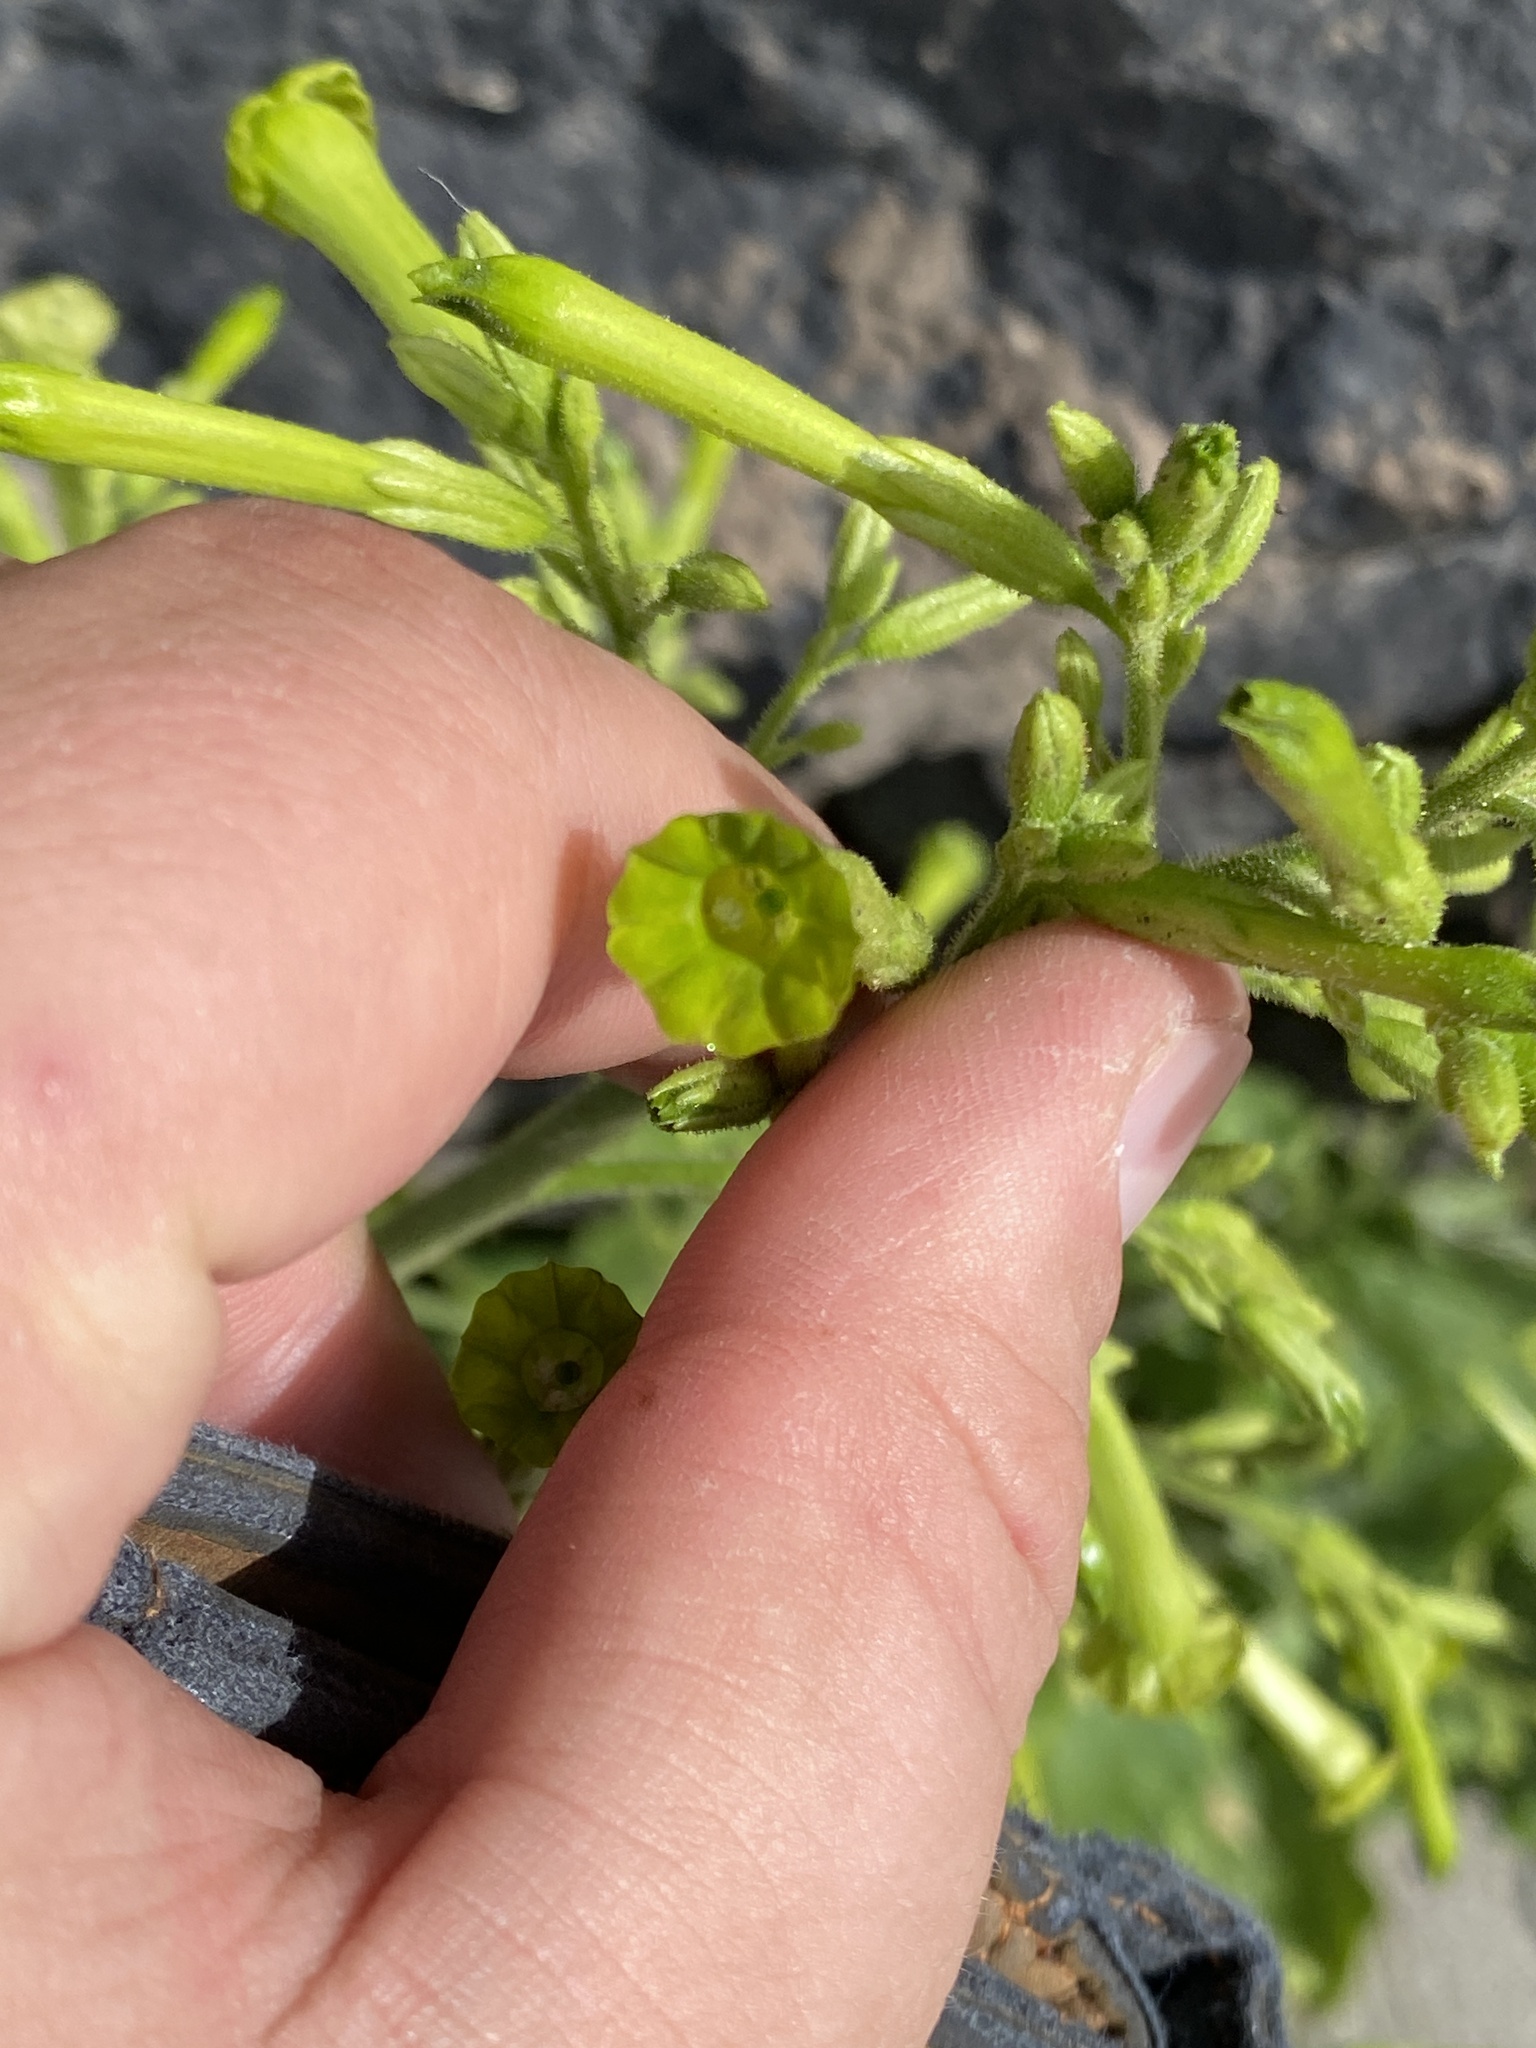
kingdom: Plantae
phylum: Tracheophyta
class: Magnoliopsida
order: Solanales
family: Solanaceae
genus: Nicotiana
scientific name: Nicotiana paniculata
